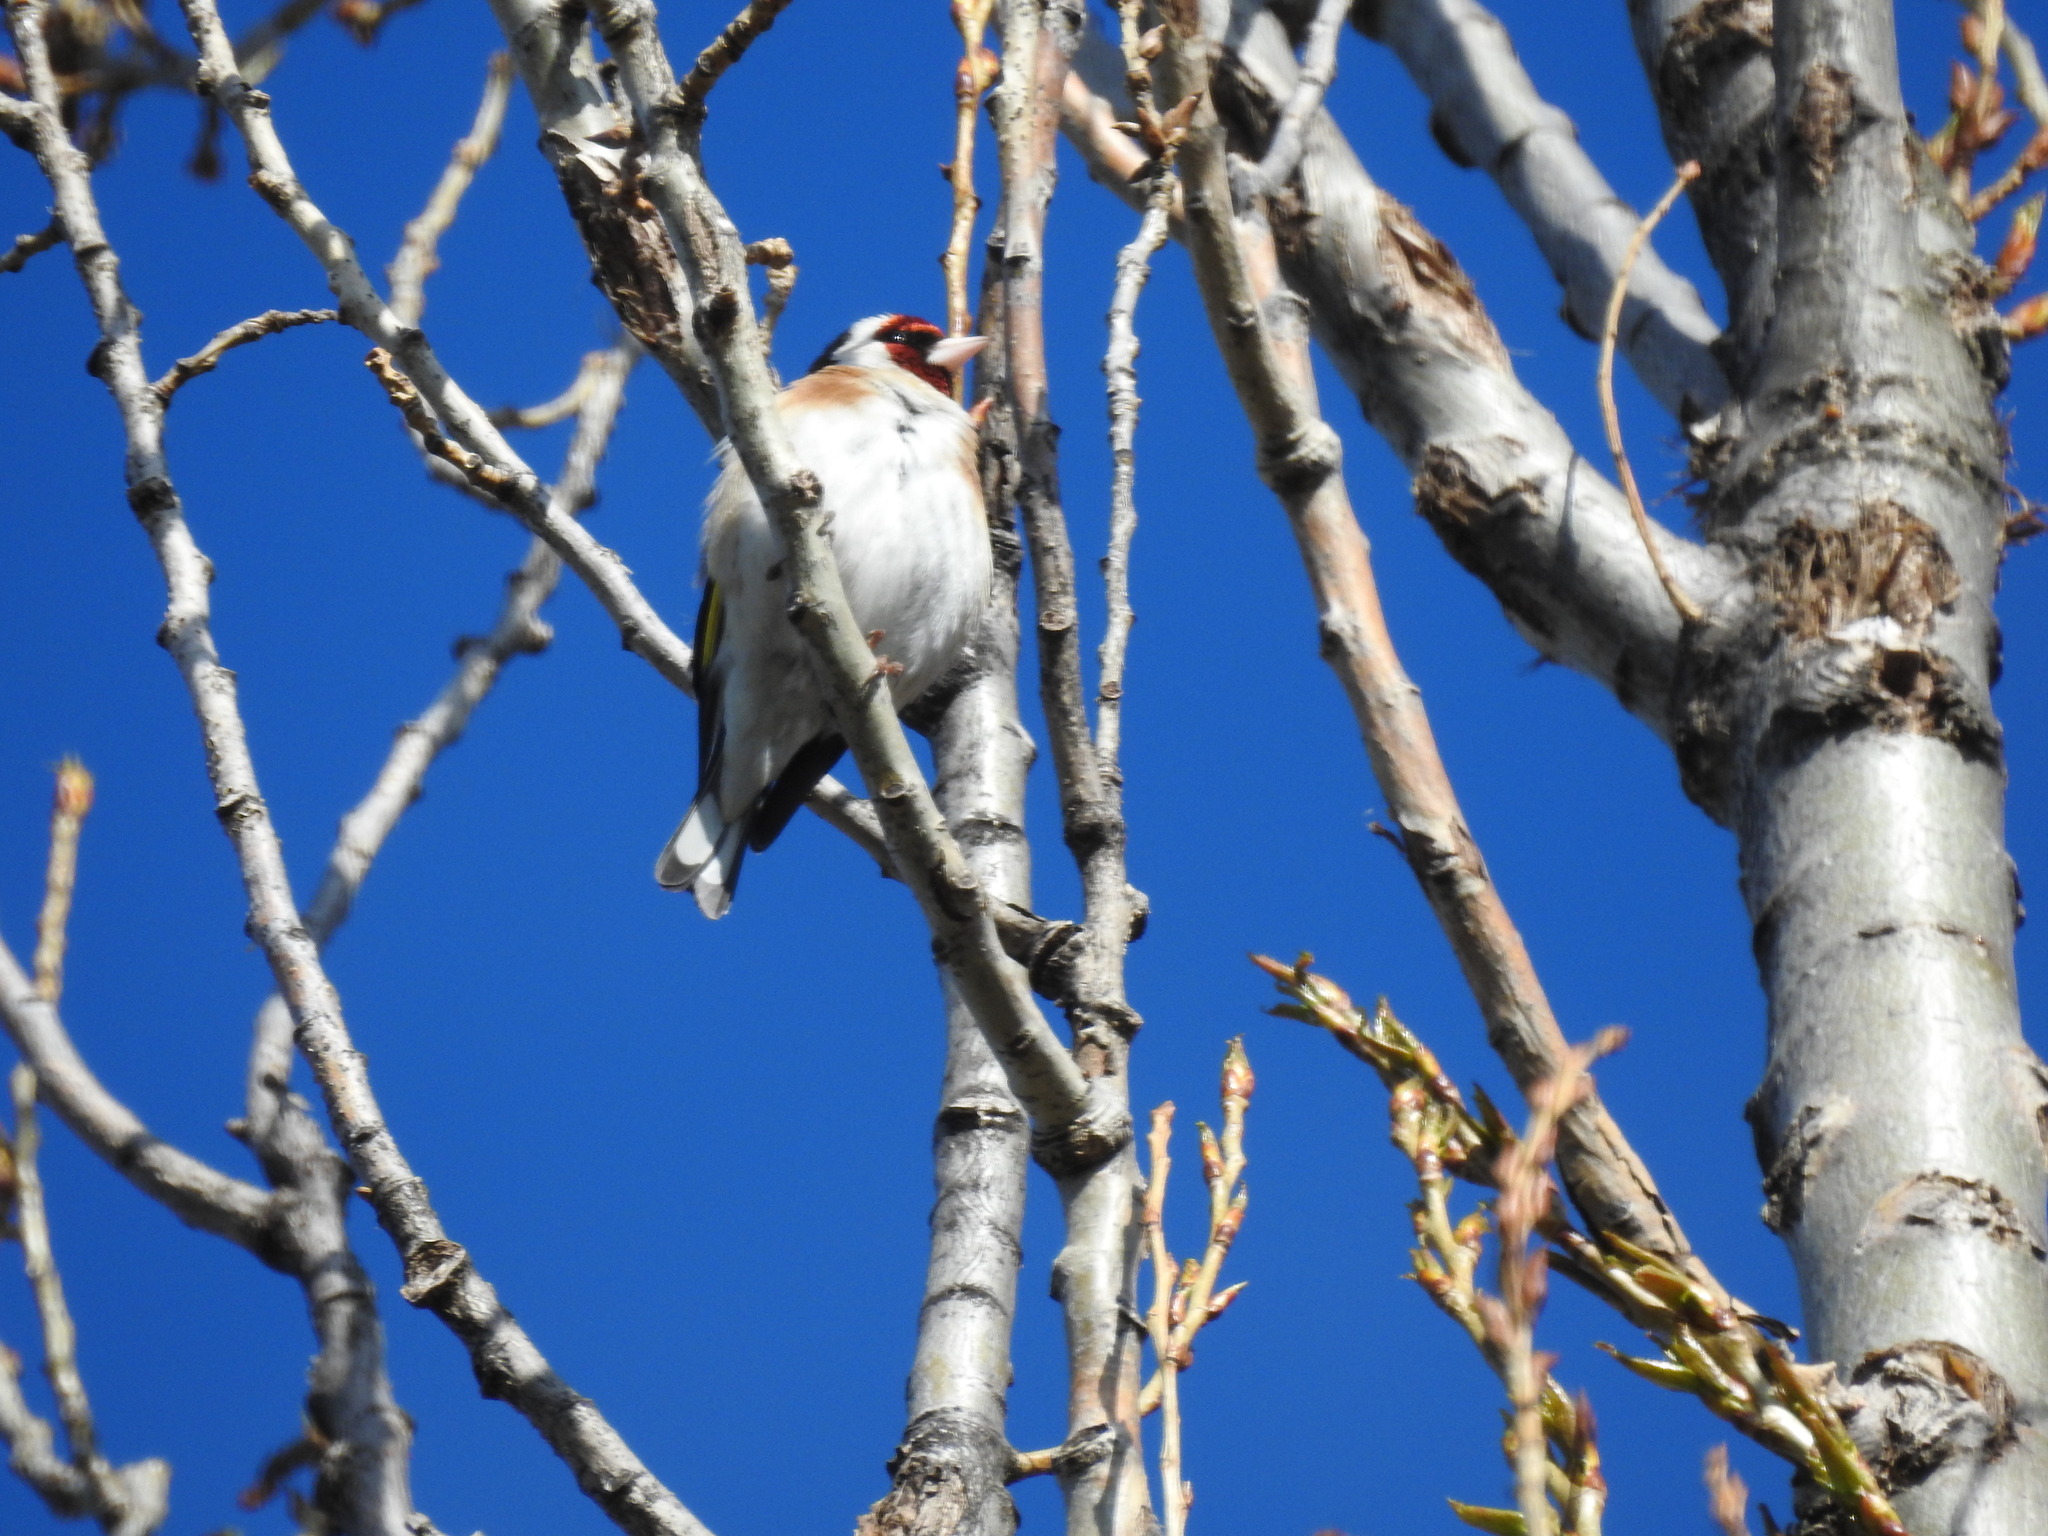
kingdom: Animalia
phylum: Chordata
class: Aves
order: Passeriformes
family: Fringillidae
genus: Carduelis
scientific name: Carduelis carduelis
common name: European goldfinch
